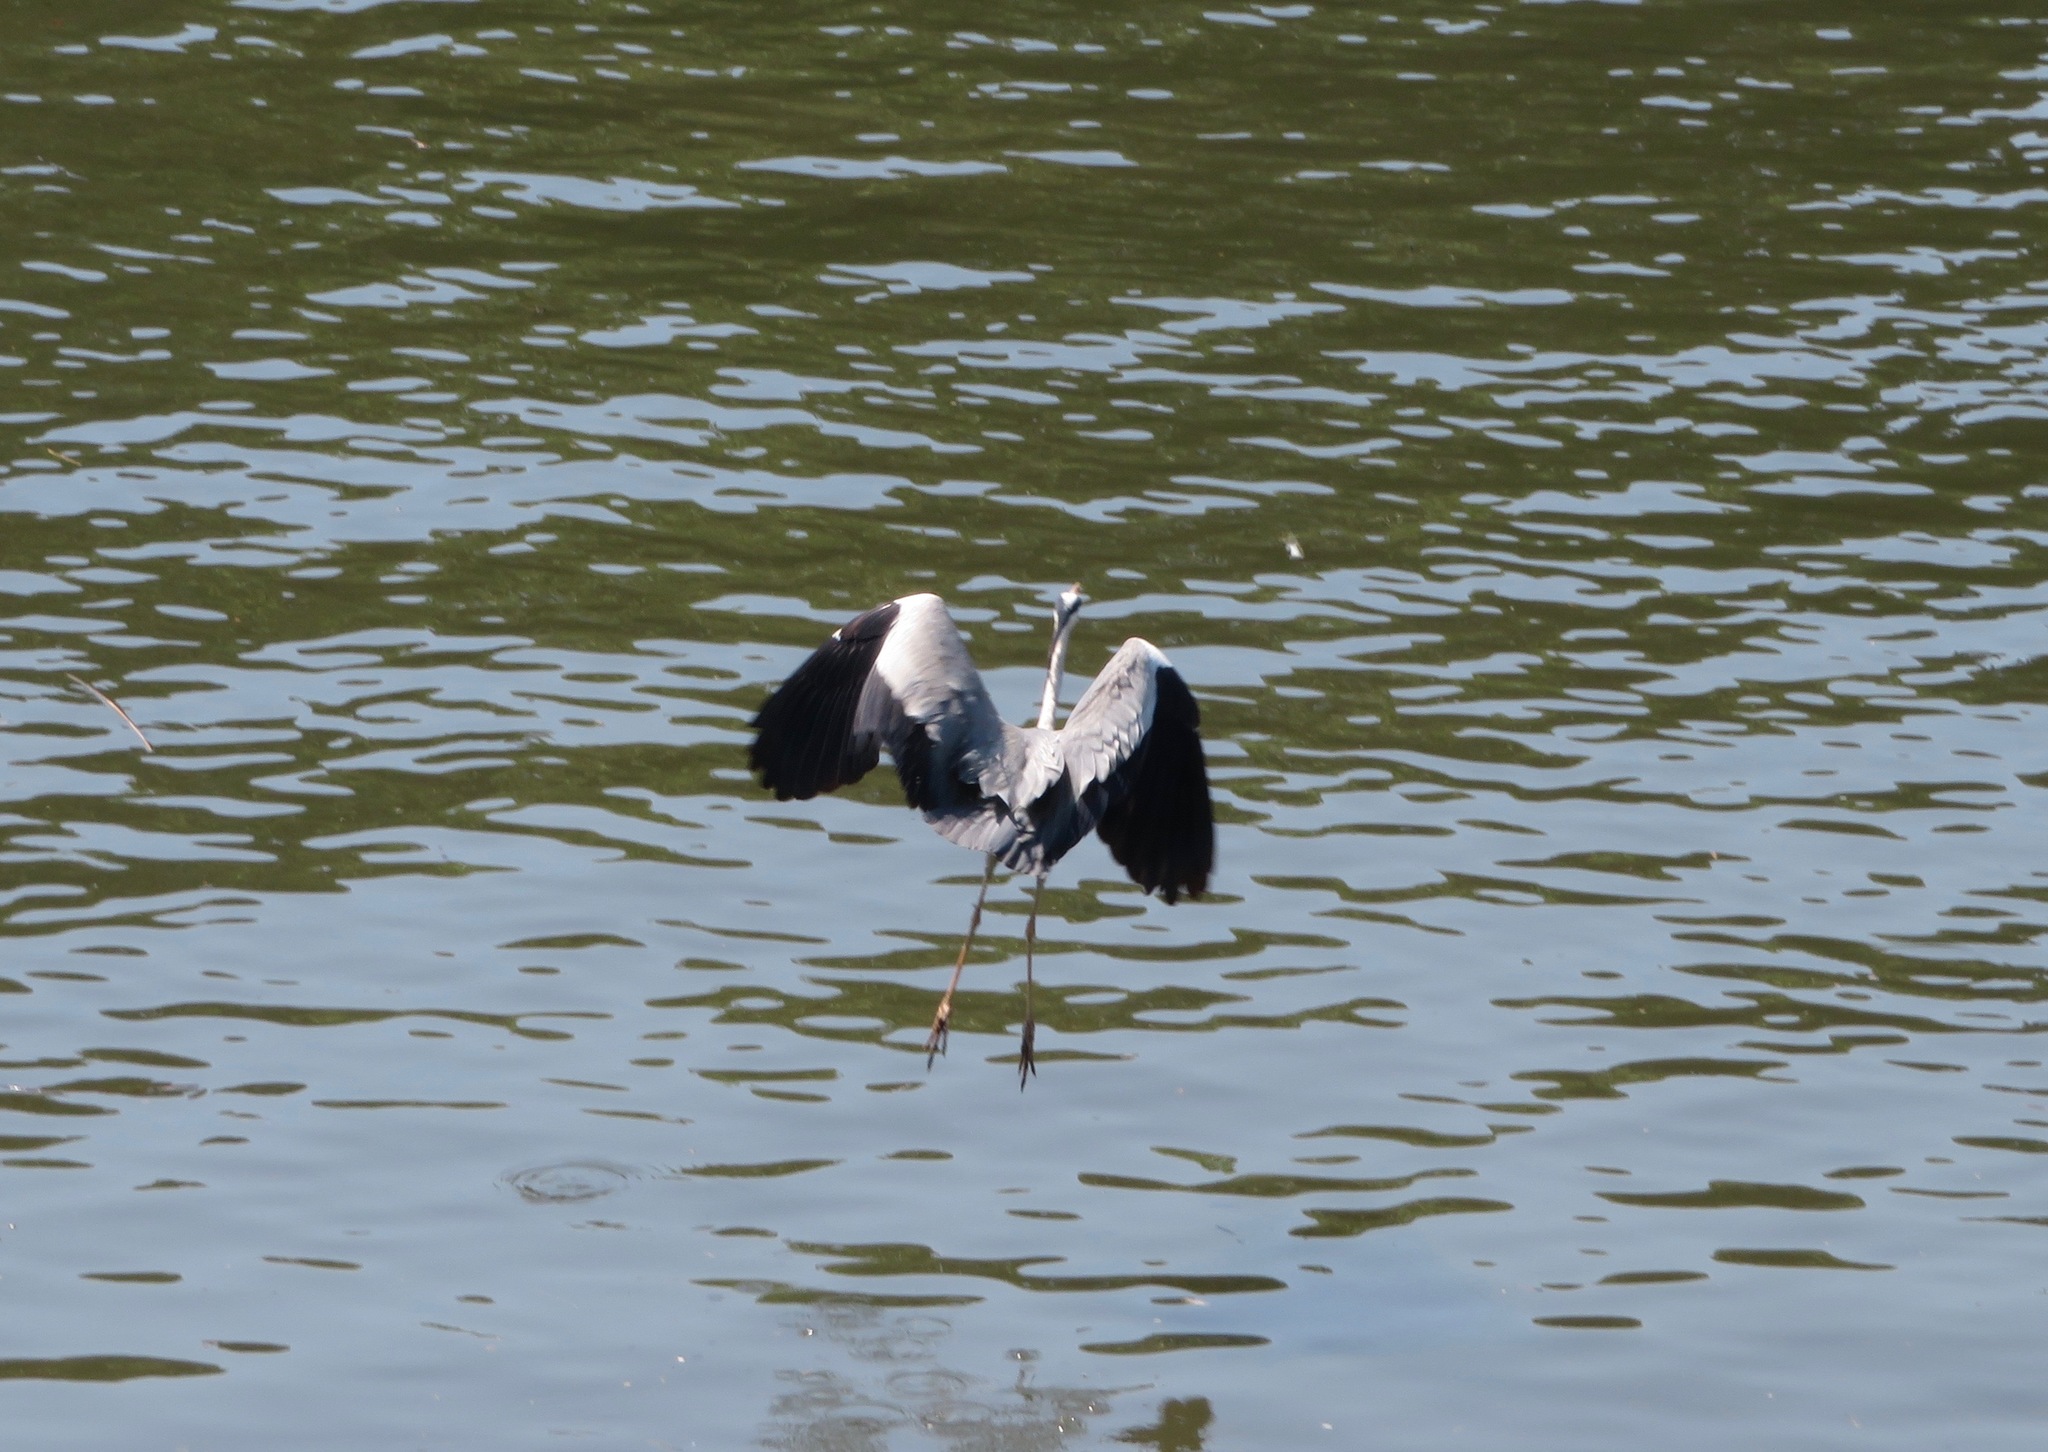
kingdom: Animalia
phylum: Chordata
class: Aves
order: Pelecaniformes
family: Ardeidae
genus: Ardea
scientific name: Ardea cinerea
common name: Grey heron
